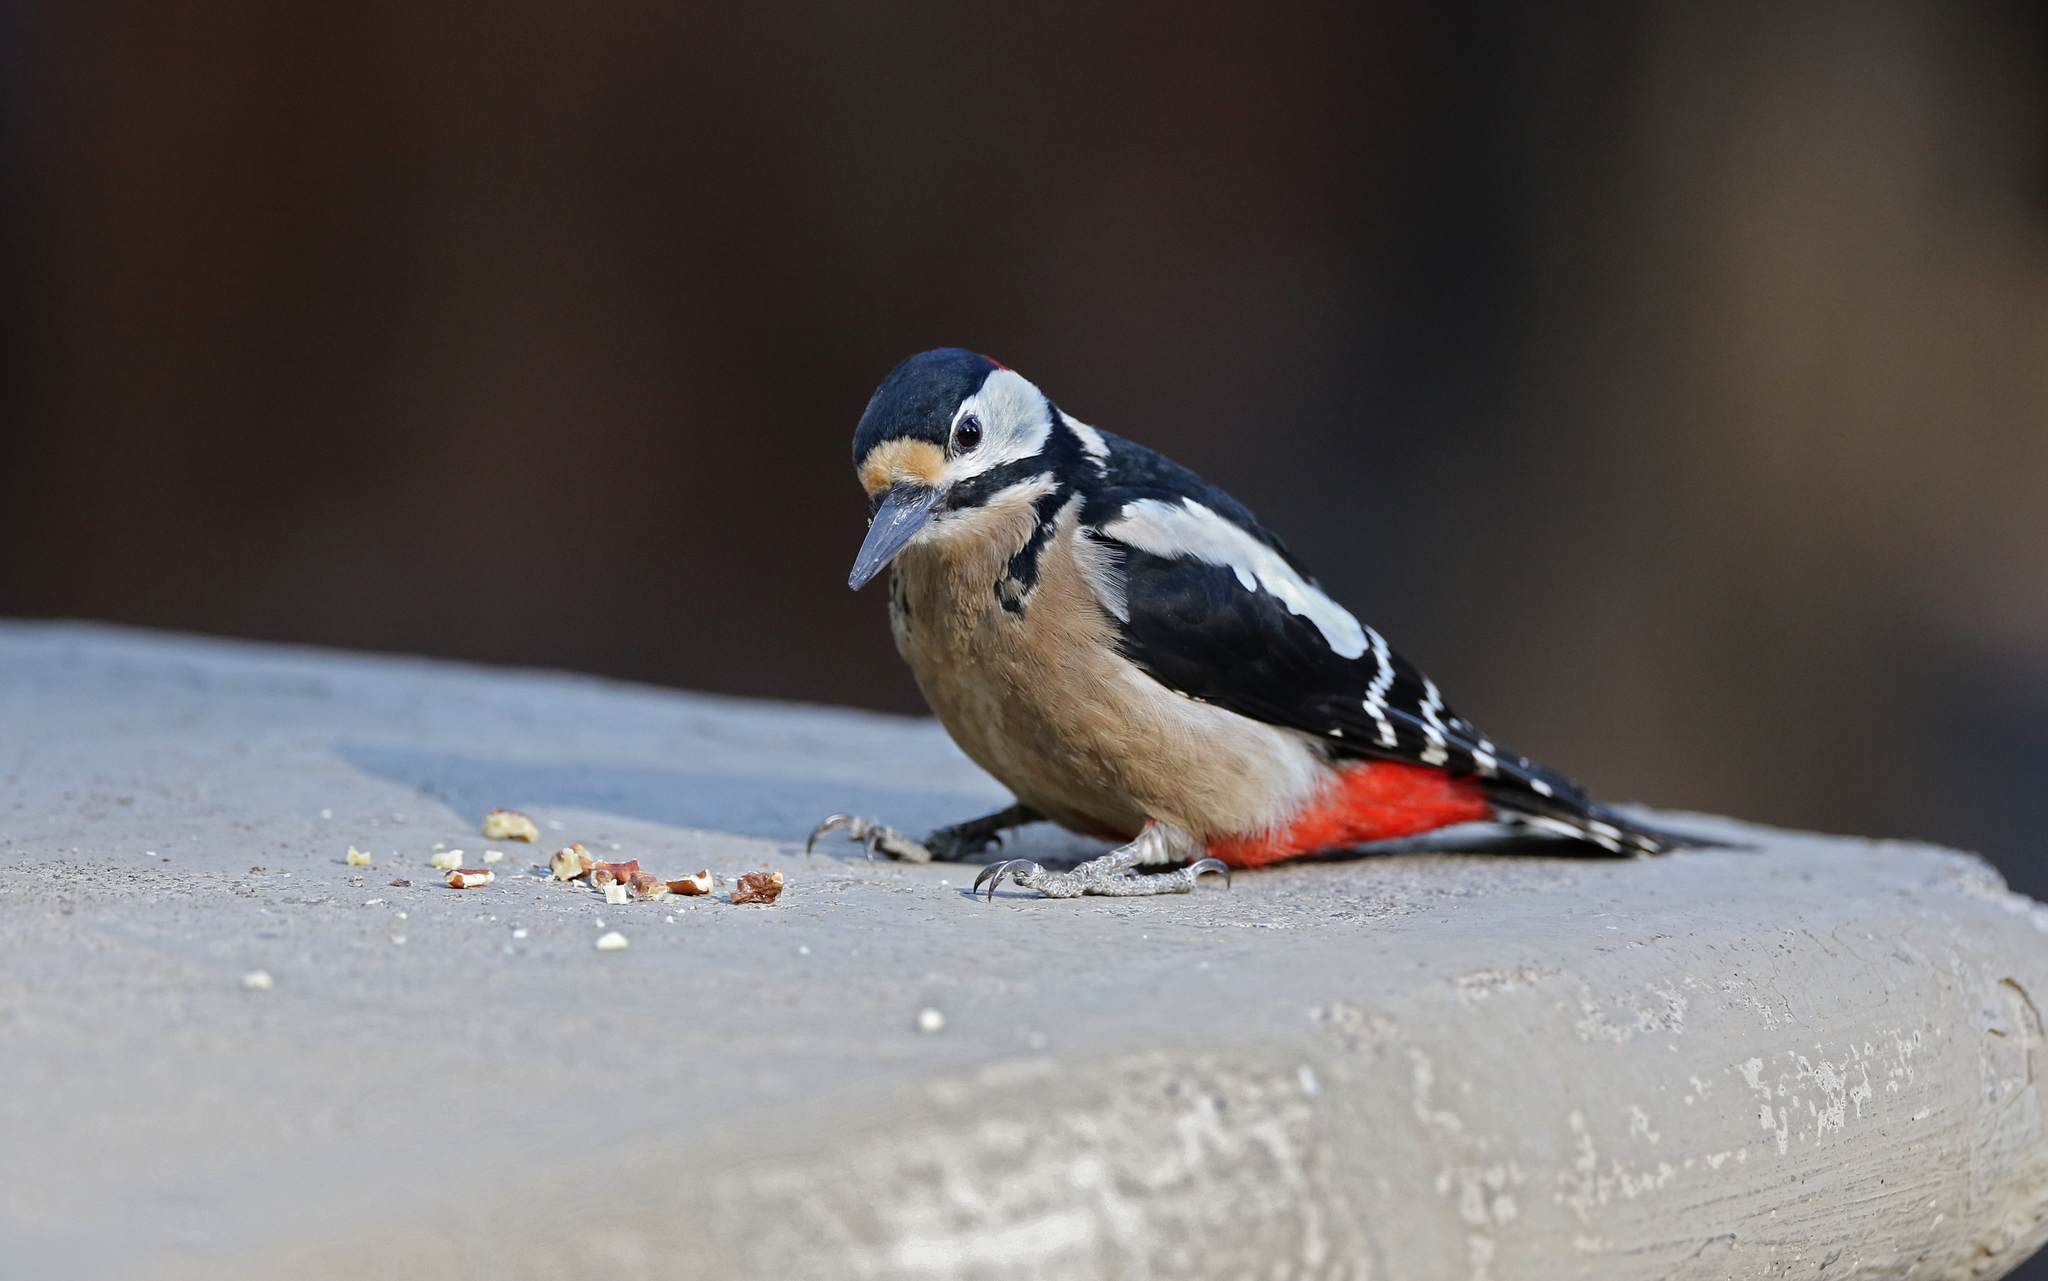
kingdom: Animalia
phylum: Chordata
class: Aves
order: Piciformes
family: Picidae
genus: Dendrocopos
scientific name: Dendrocopos major
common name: Great spotted woodpecker
